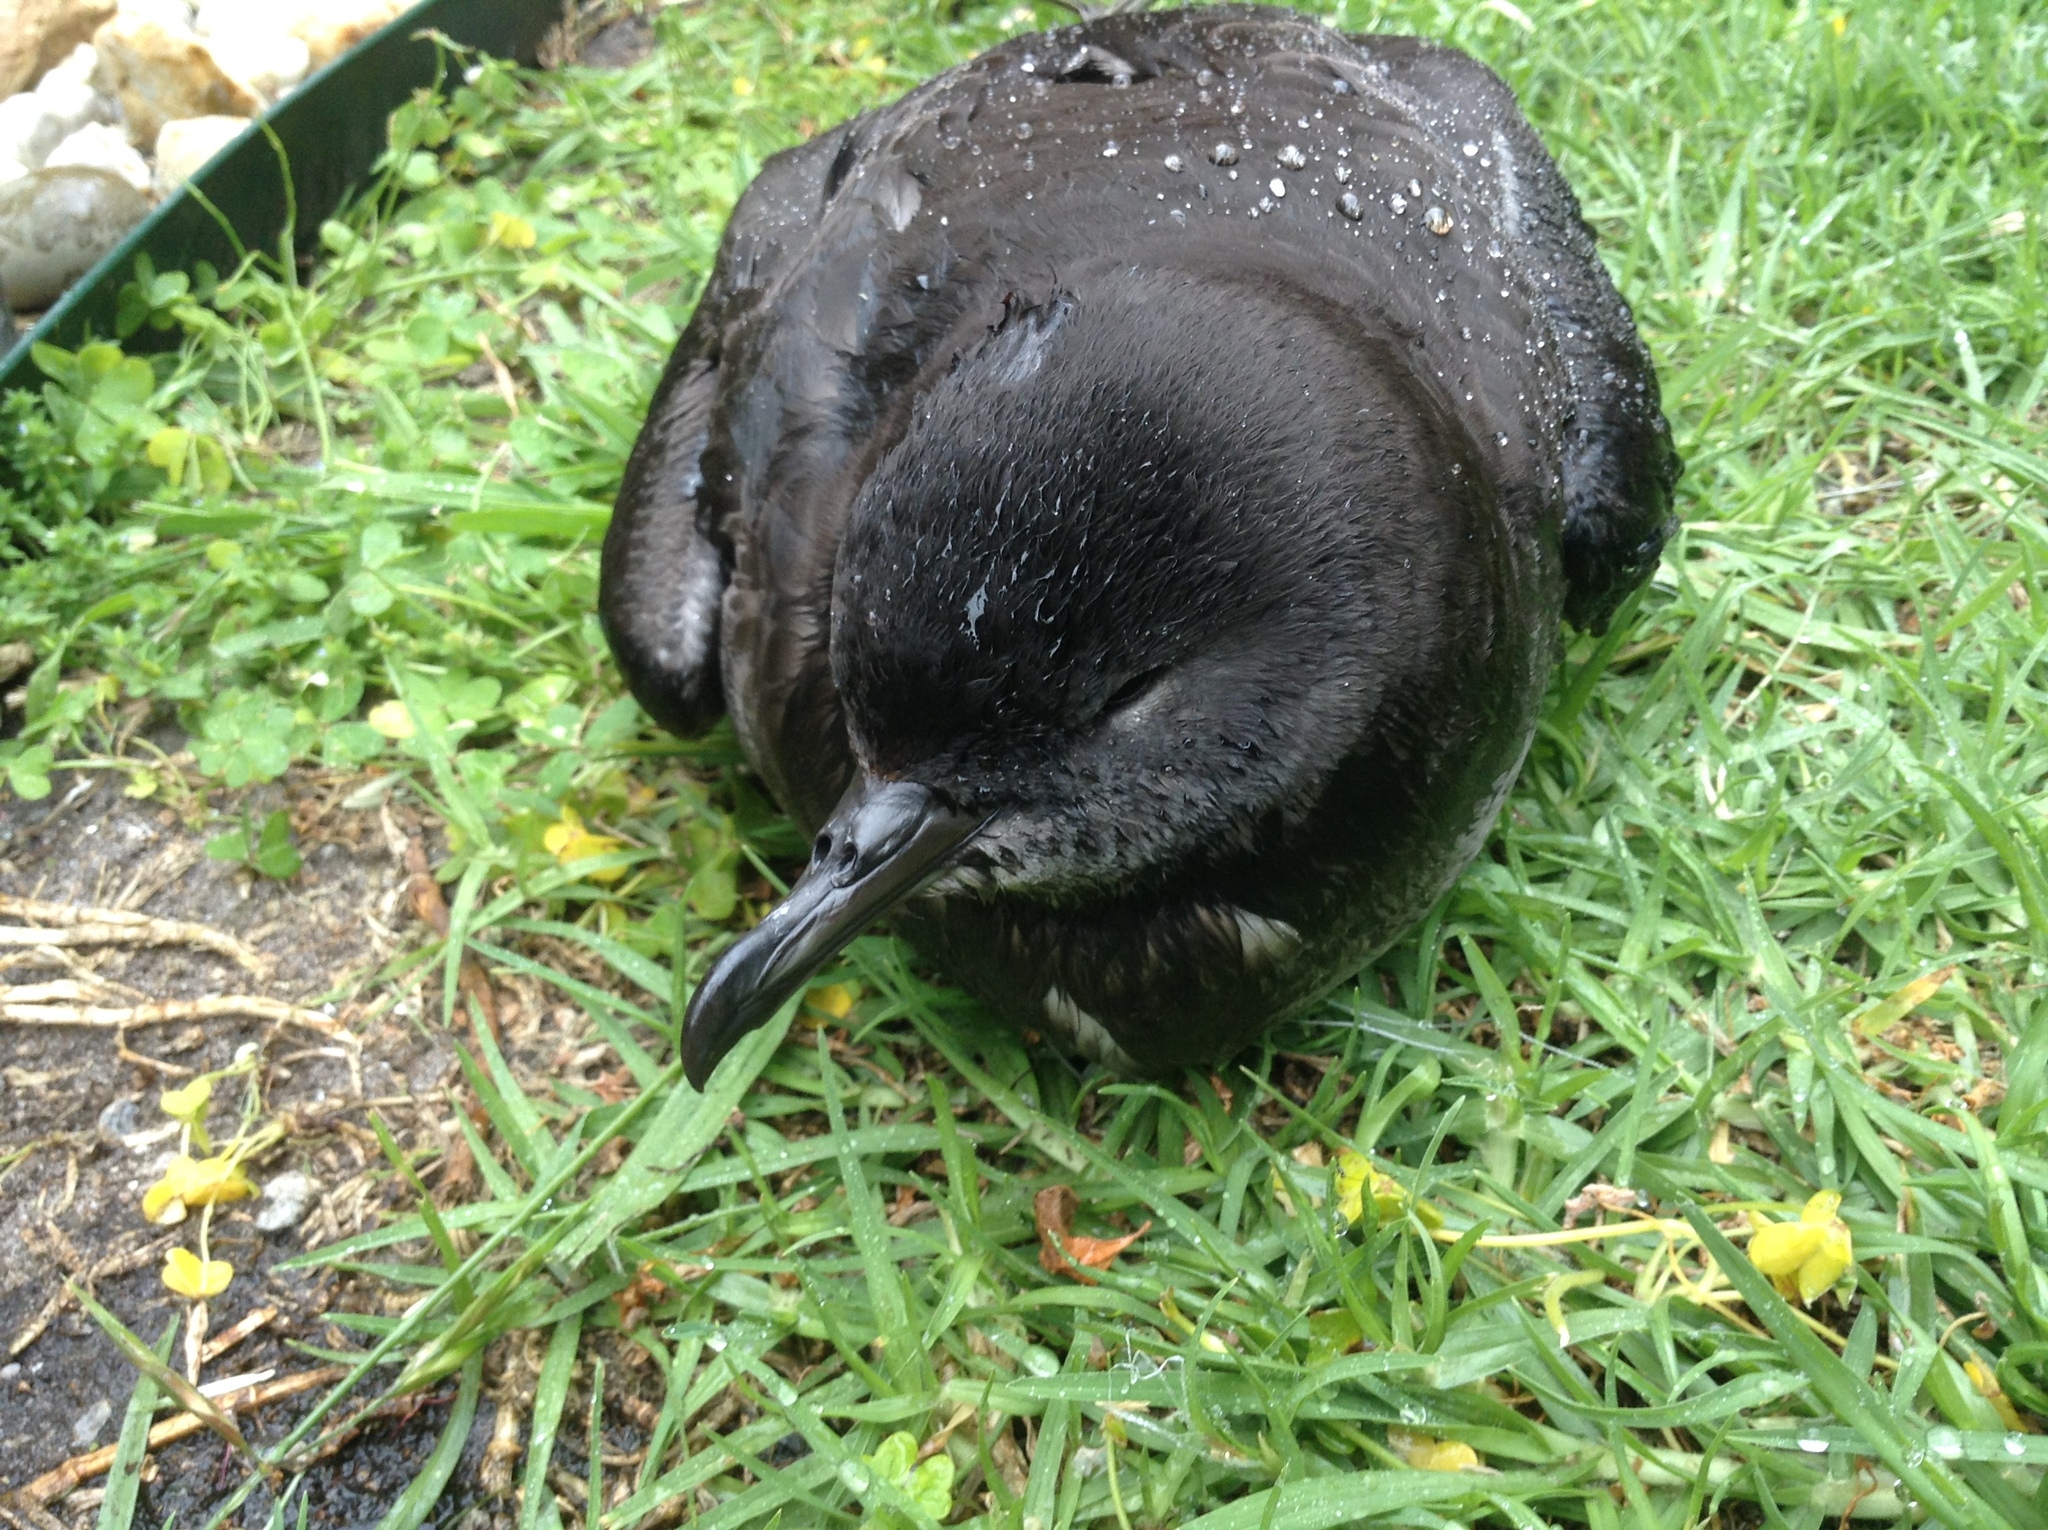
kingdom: Animalia
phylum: Chordata
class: Aves
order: Procellariiformes
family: Procellariidae
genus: Puffinus
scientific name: Puffinus tenuirostris
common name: Short-tailed shearwater
